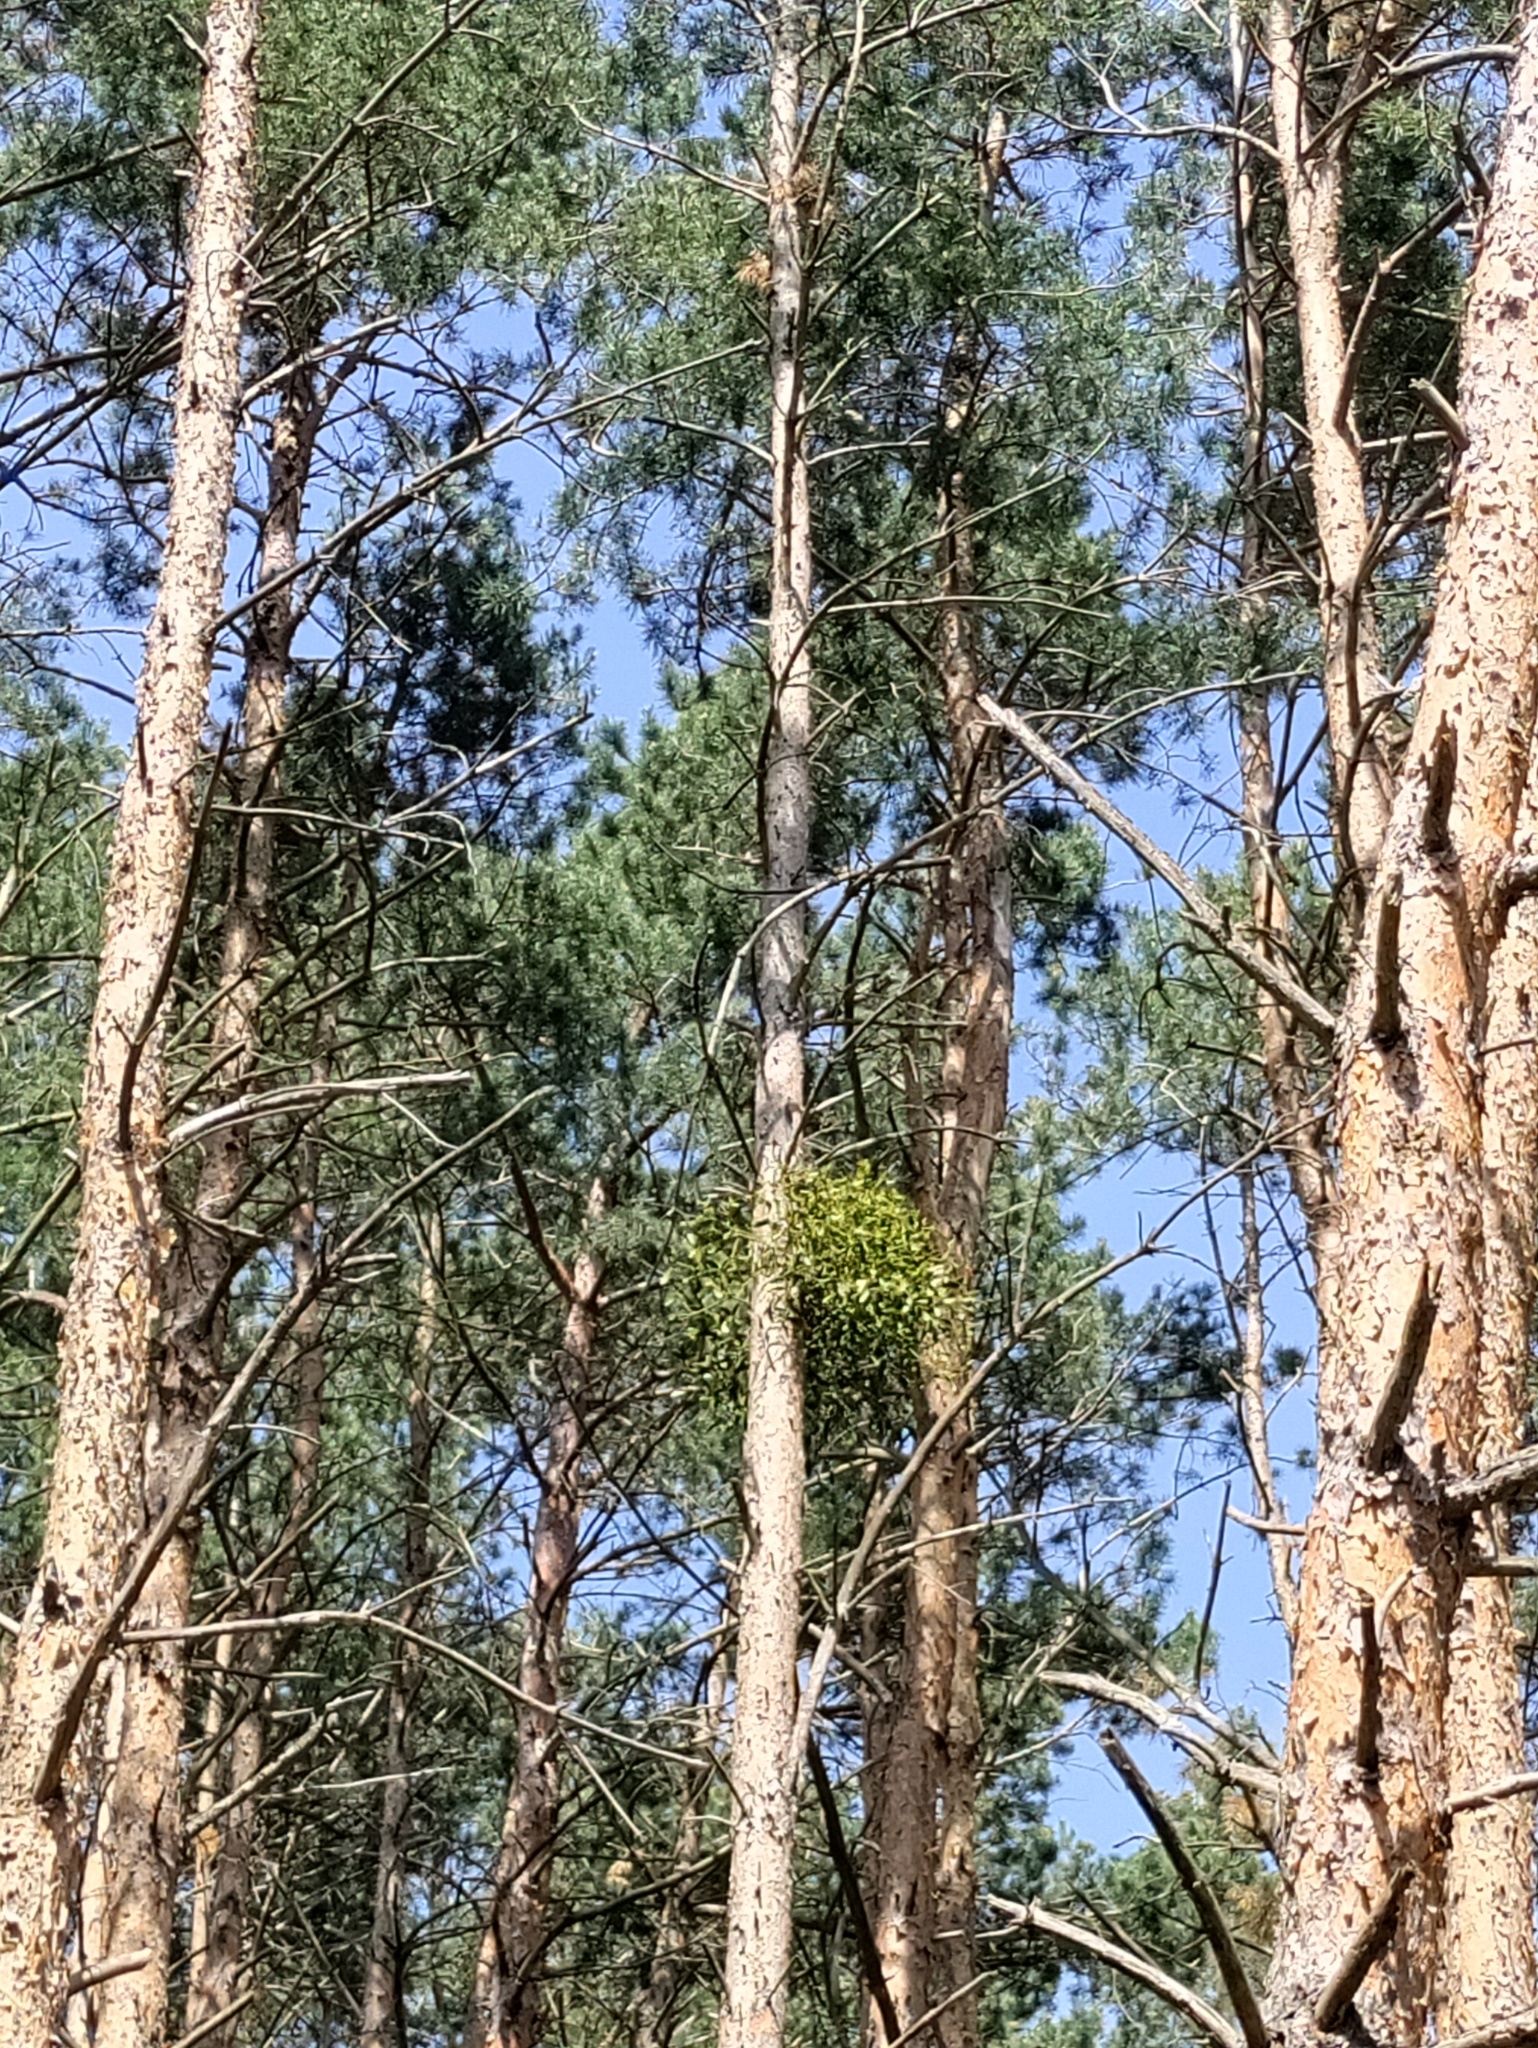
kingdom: Plantae
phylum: Tracheophyta
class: Magnoliopsida
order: Santalales
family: Viscaceae
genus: Viscum
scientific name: Viscum laxum
